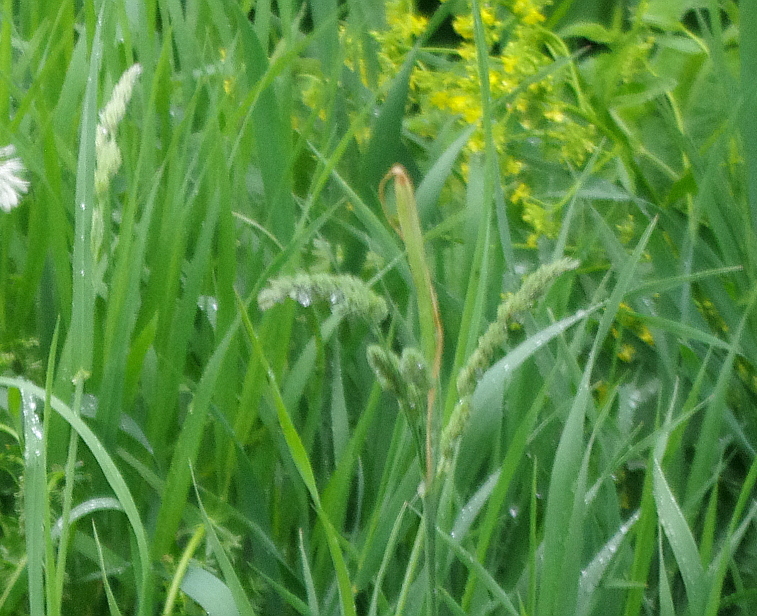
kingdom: Plantae
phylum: Tracheophyta
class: Liliopsida
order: Poales
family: Poaceae
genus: Dactylis
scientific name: Dactylis glomerata
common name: Orchardgrass
